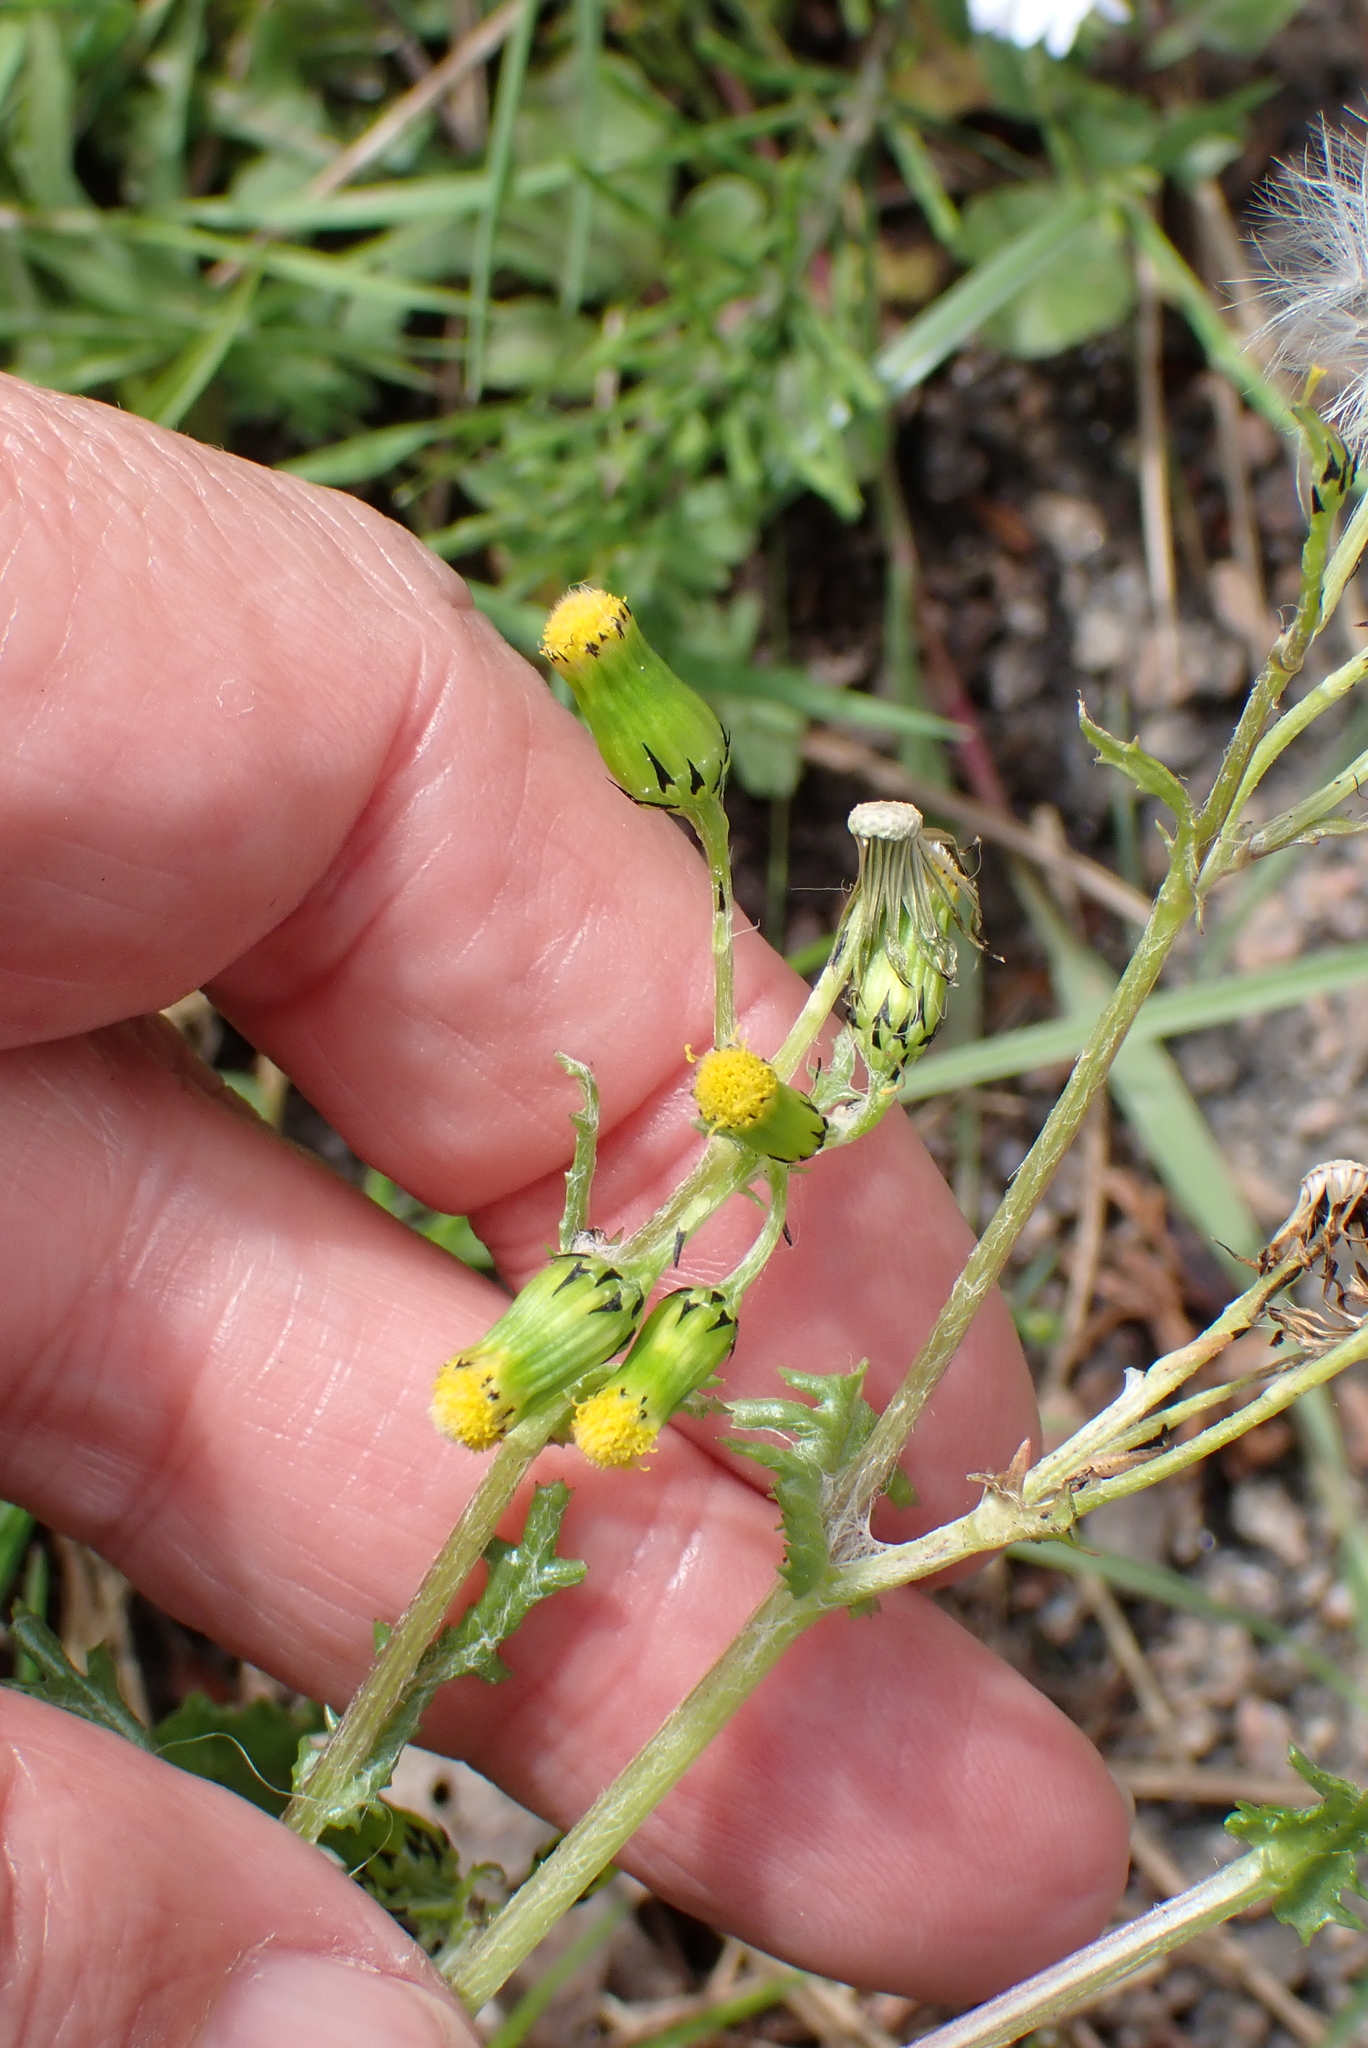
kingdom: Plantae
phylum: Tracheophyta
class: Magnoliopsida
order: Asterales
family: Asteraceae
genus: Senecio
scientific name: Senecio vulgaris
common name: Old-man-in-the-spring
